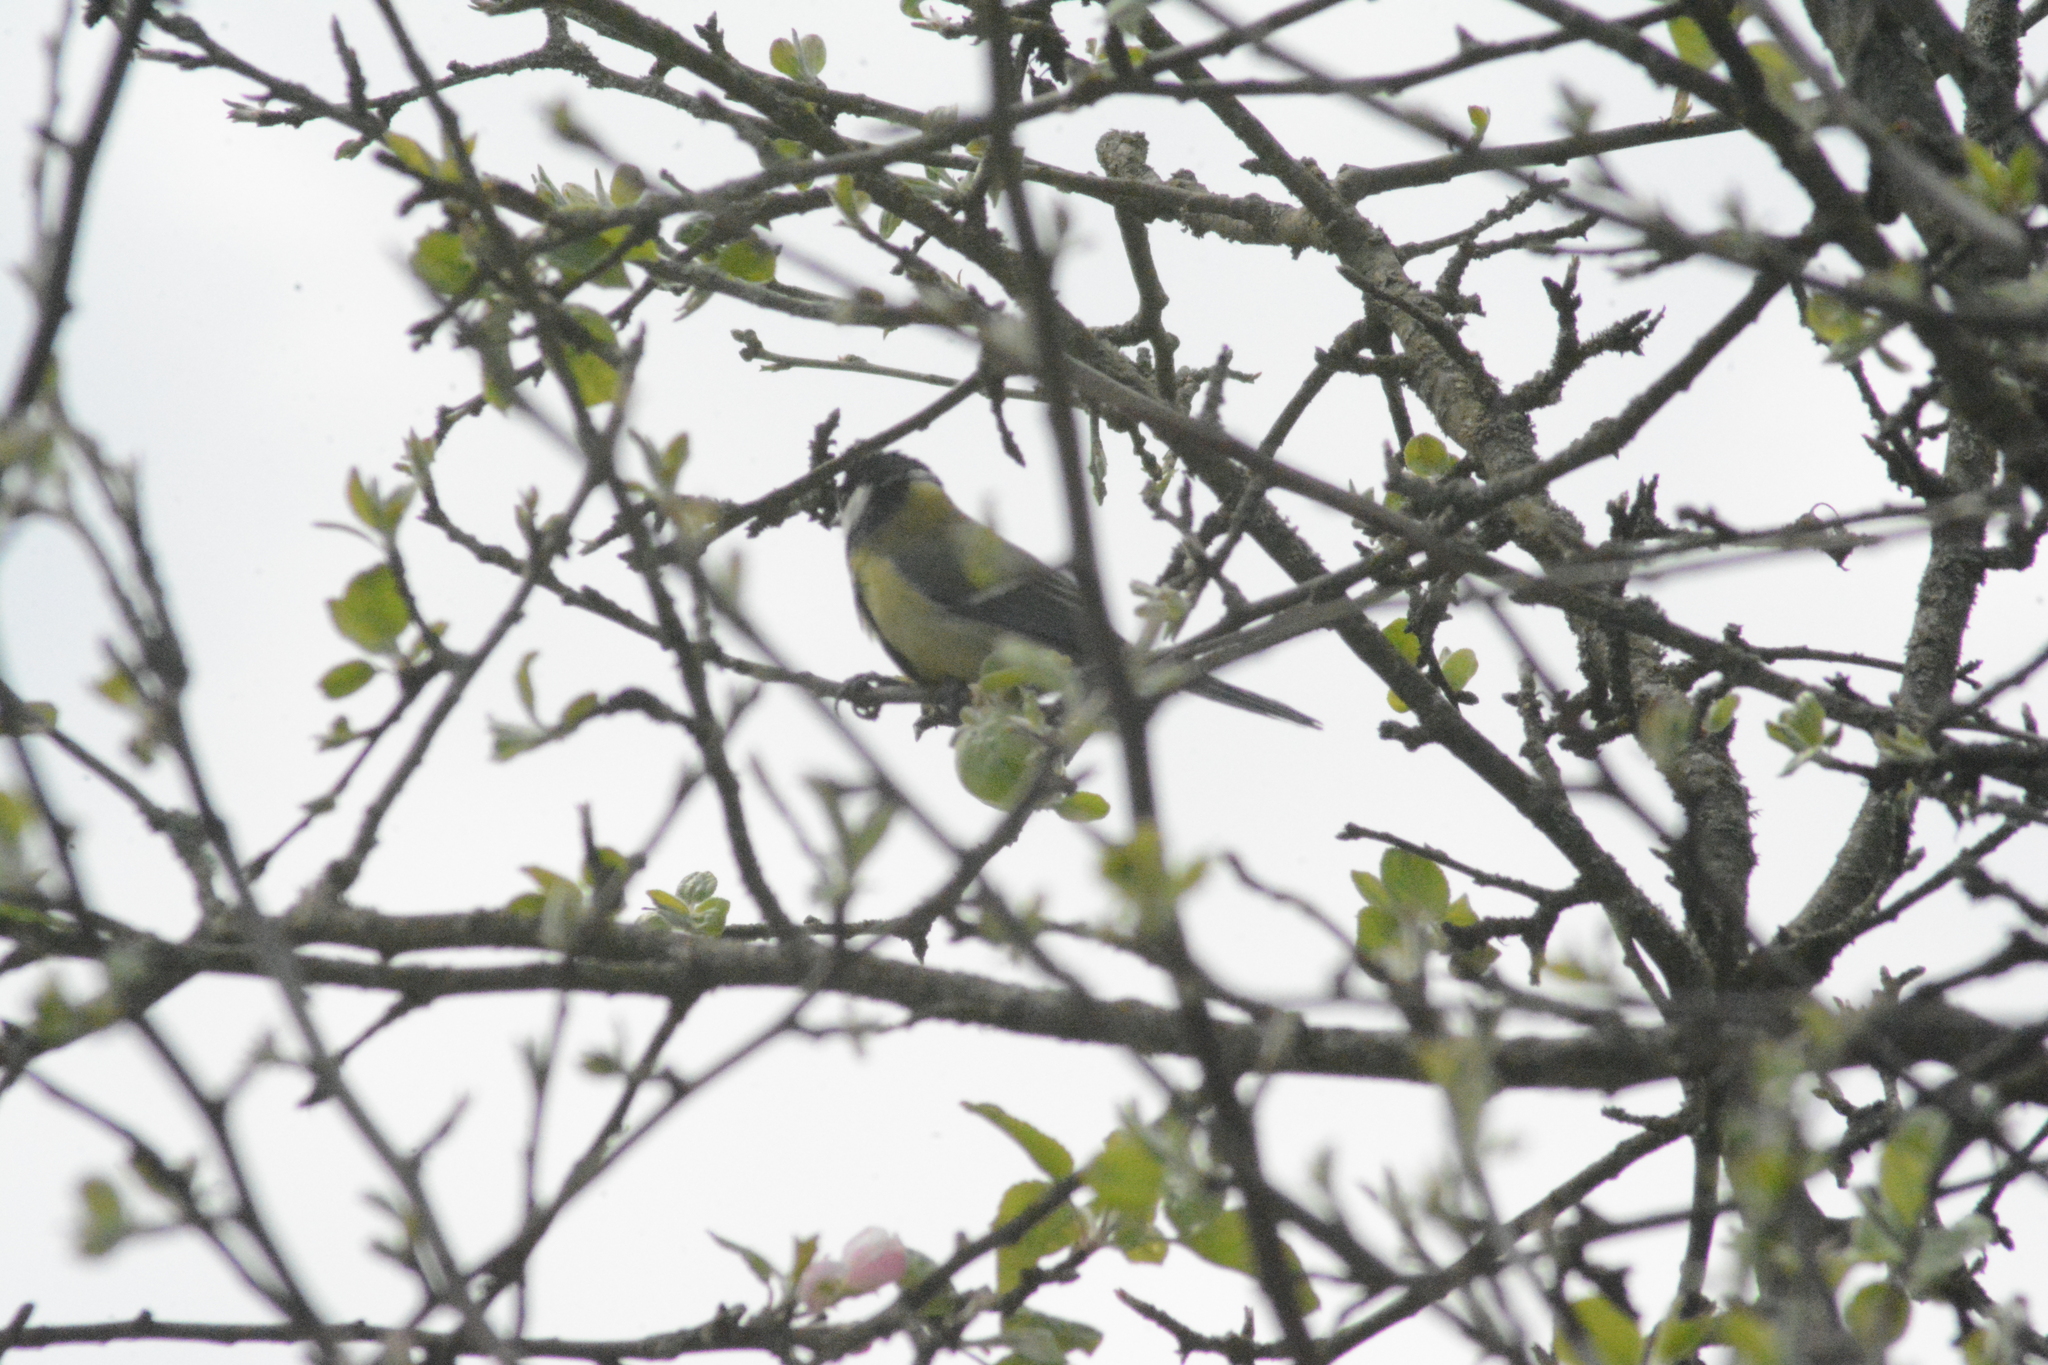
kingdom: Animalia
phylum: Chordata
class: Aves
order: Passeriformes
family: Paridae
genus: Parus
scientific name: Parus major
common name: Great tit
